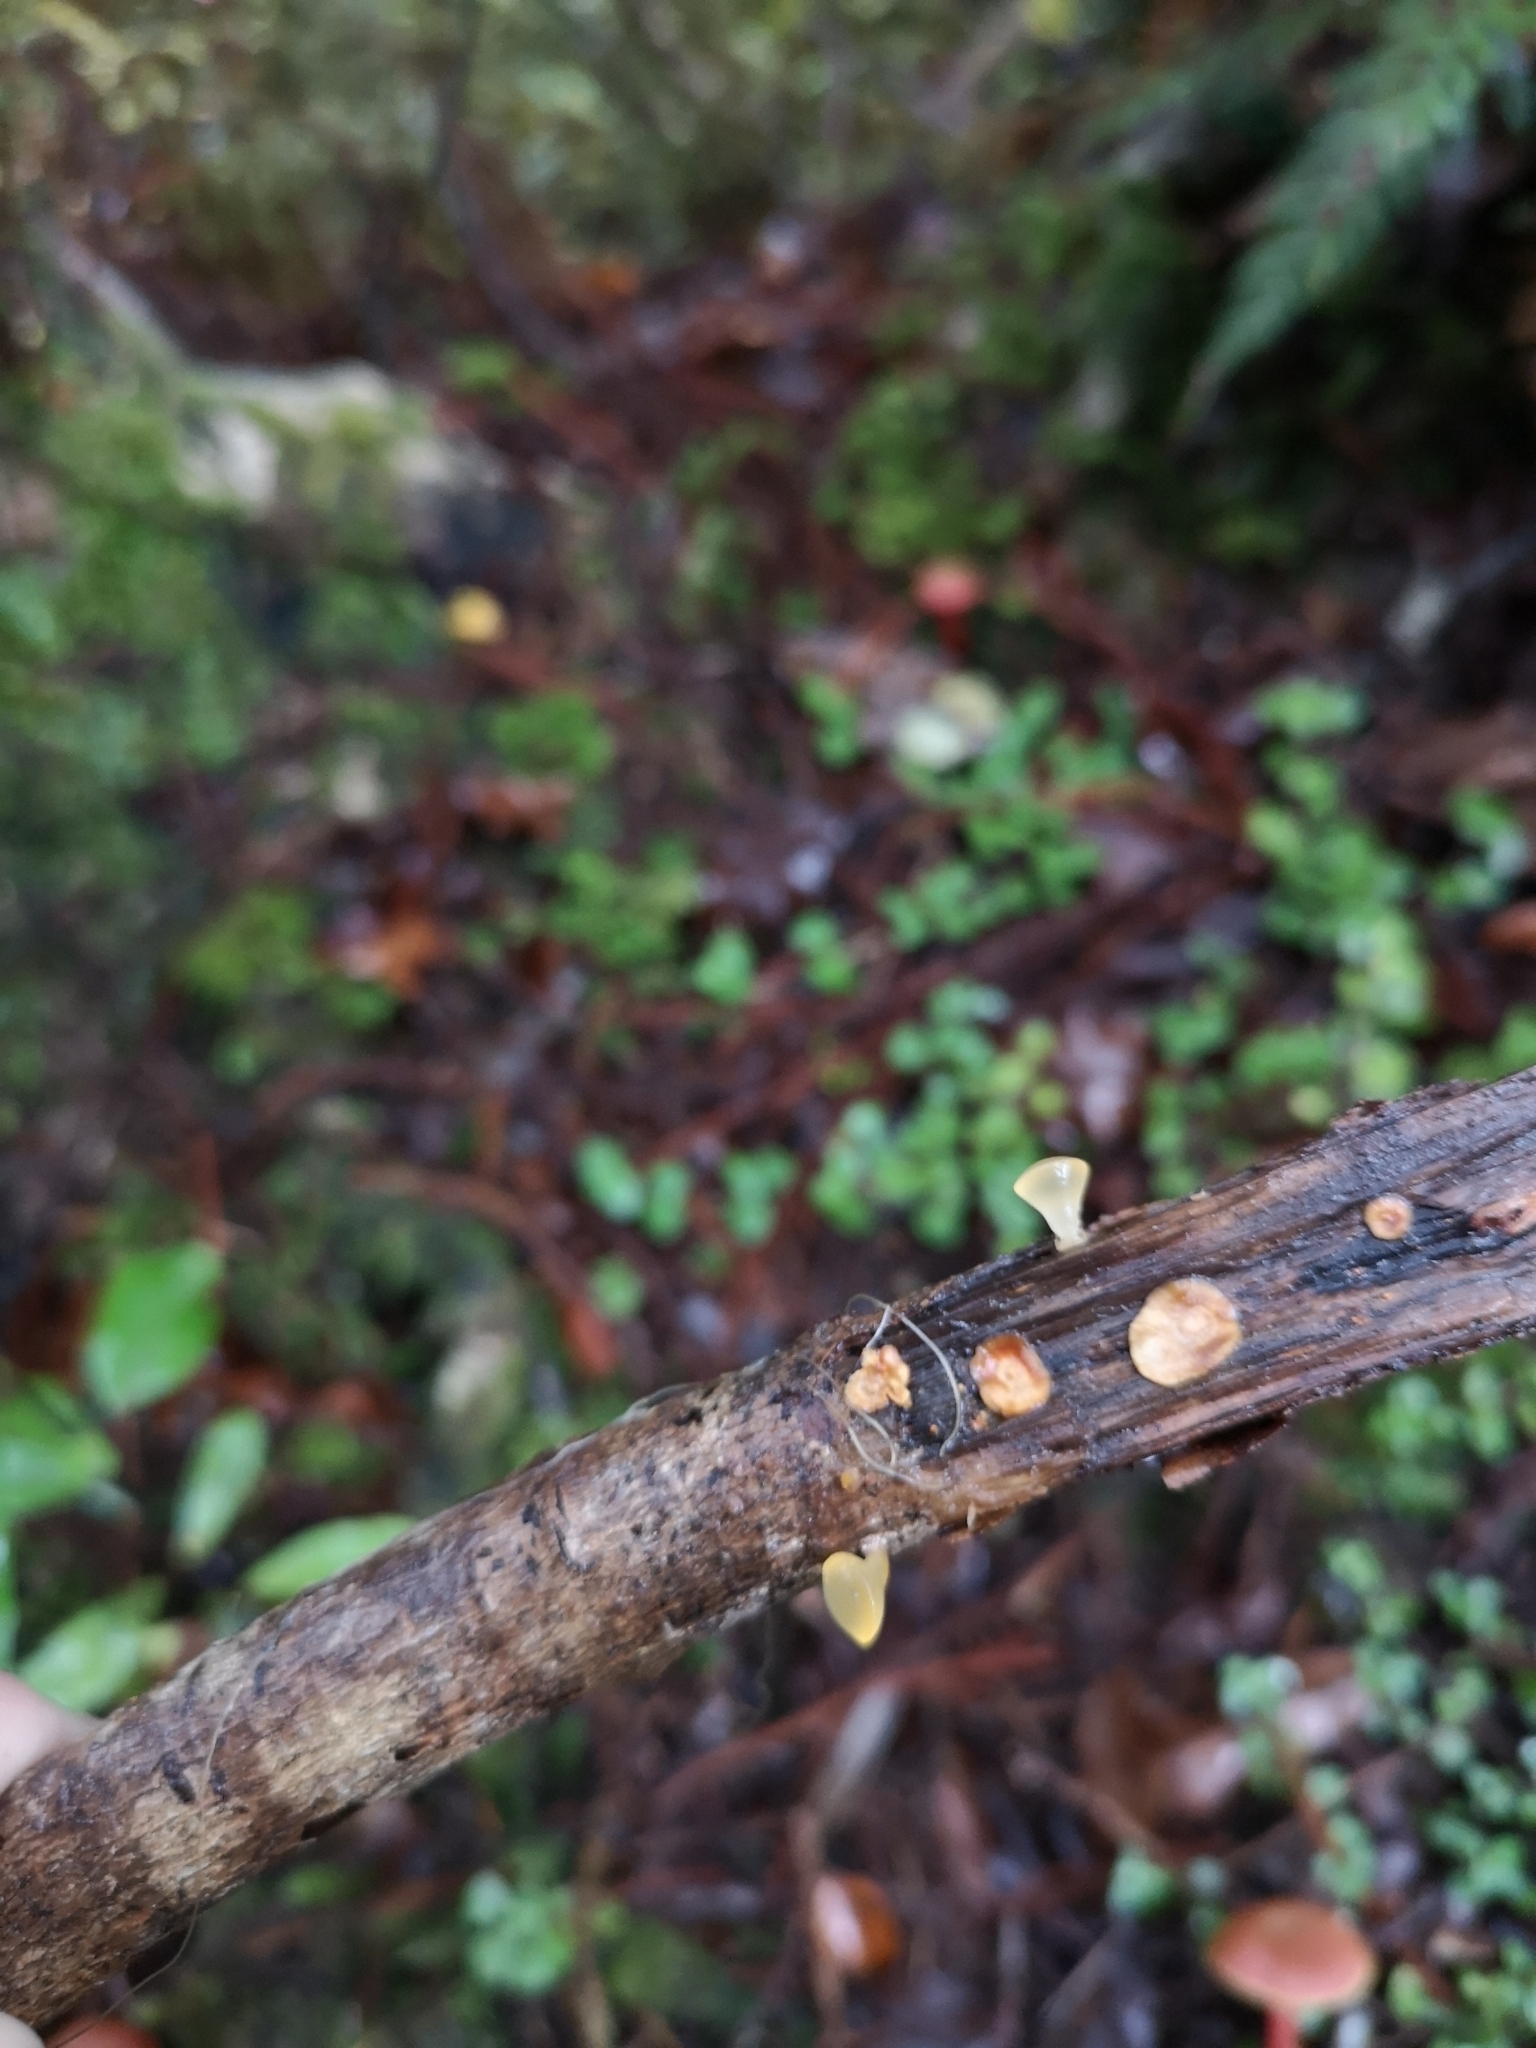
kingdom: Fungi
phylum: Basidiomycota
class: Dacrymycetes
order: Dacrymycetales
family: Dacrymycetaceae
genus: Heterotextus
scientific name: Heterotextus miltinus
